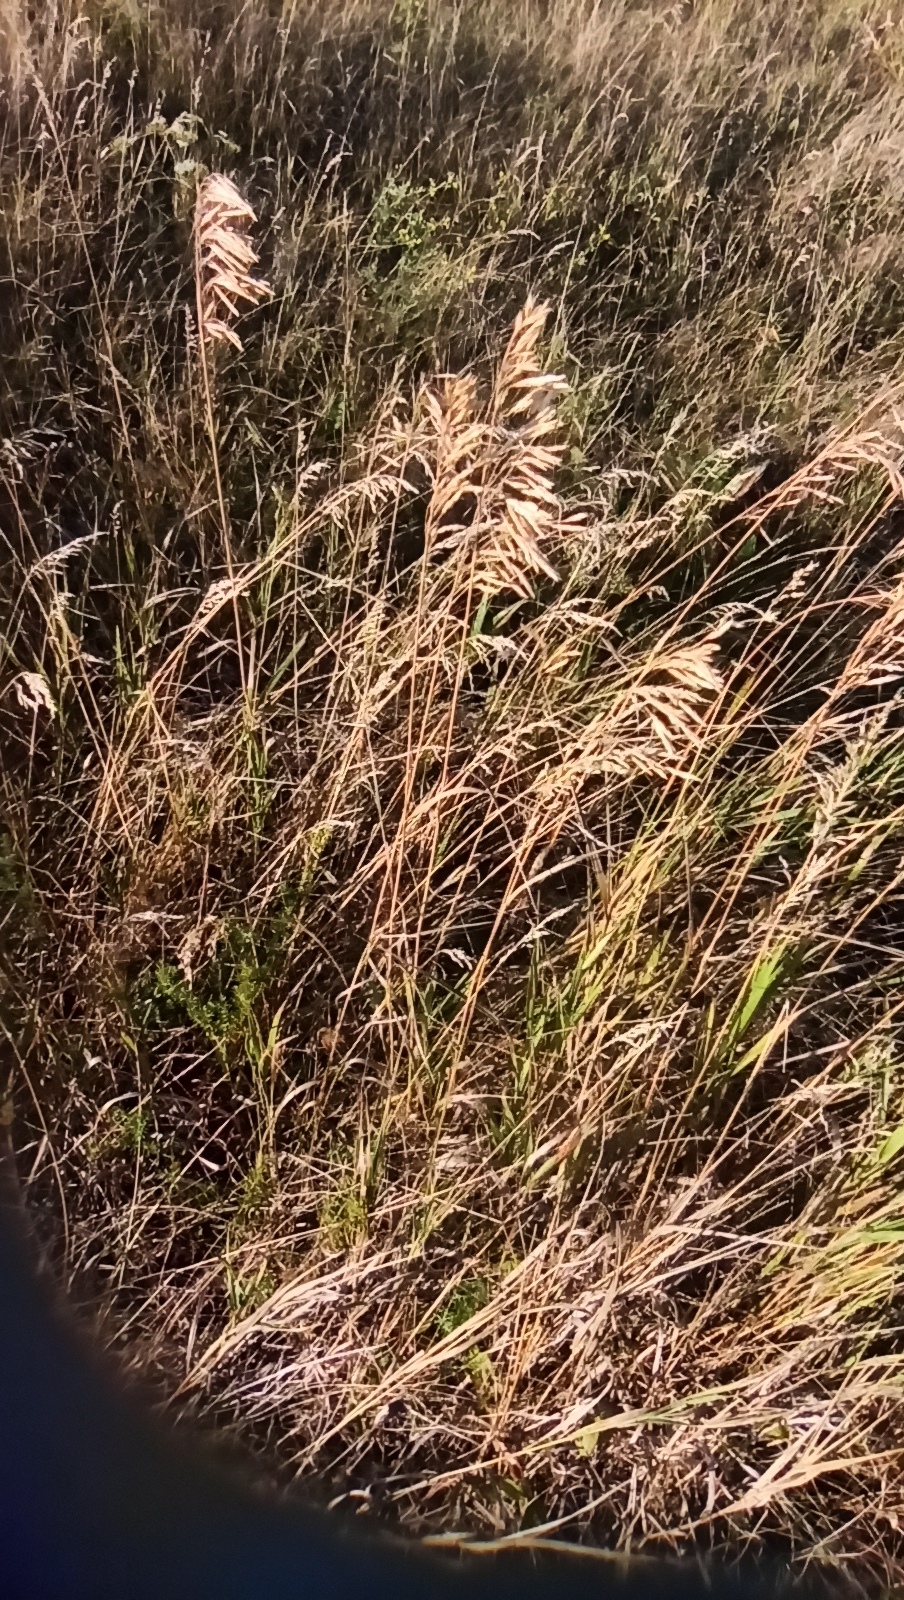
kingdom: Plantae
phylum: Tracheophyta
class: Liliopsida
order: Poales
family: Poaceae
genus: Bromus
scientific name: Bromus inermis
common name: Smooth brome
